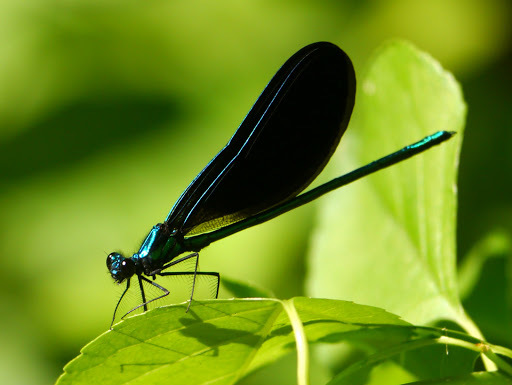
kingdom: Animalia
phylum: Arthropoda
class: Insecta
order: Odonata
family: Calopterygidae
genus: Calopteryx
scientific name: Calopteryx maculata
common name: Ebony jewelwing
